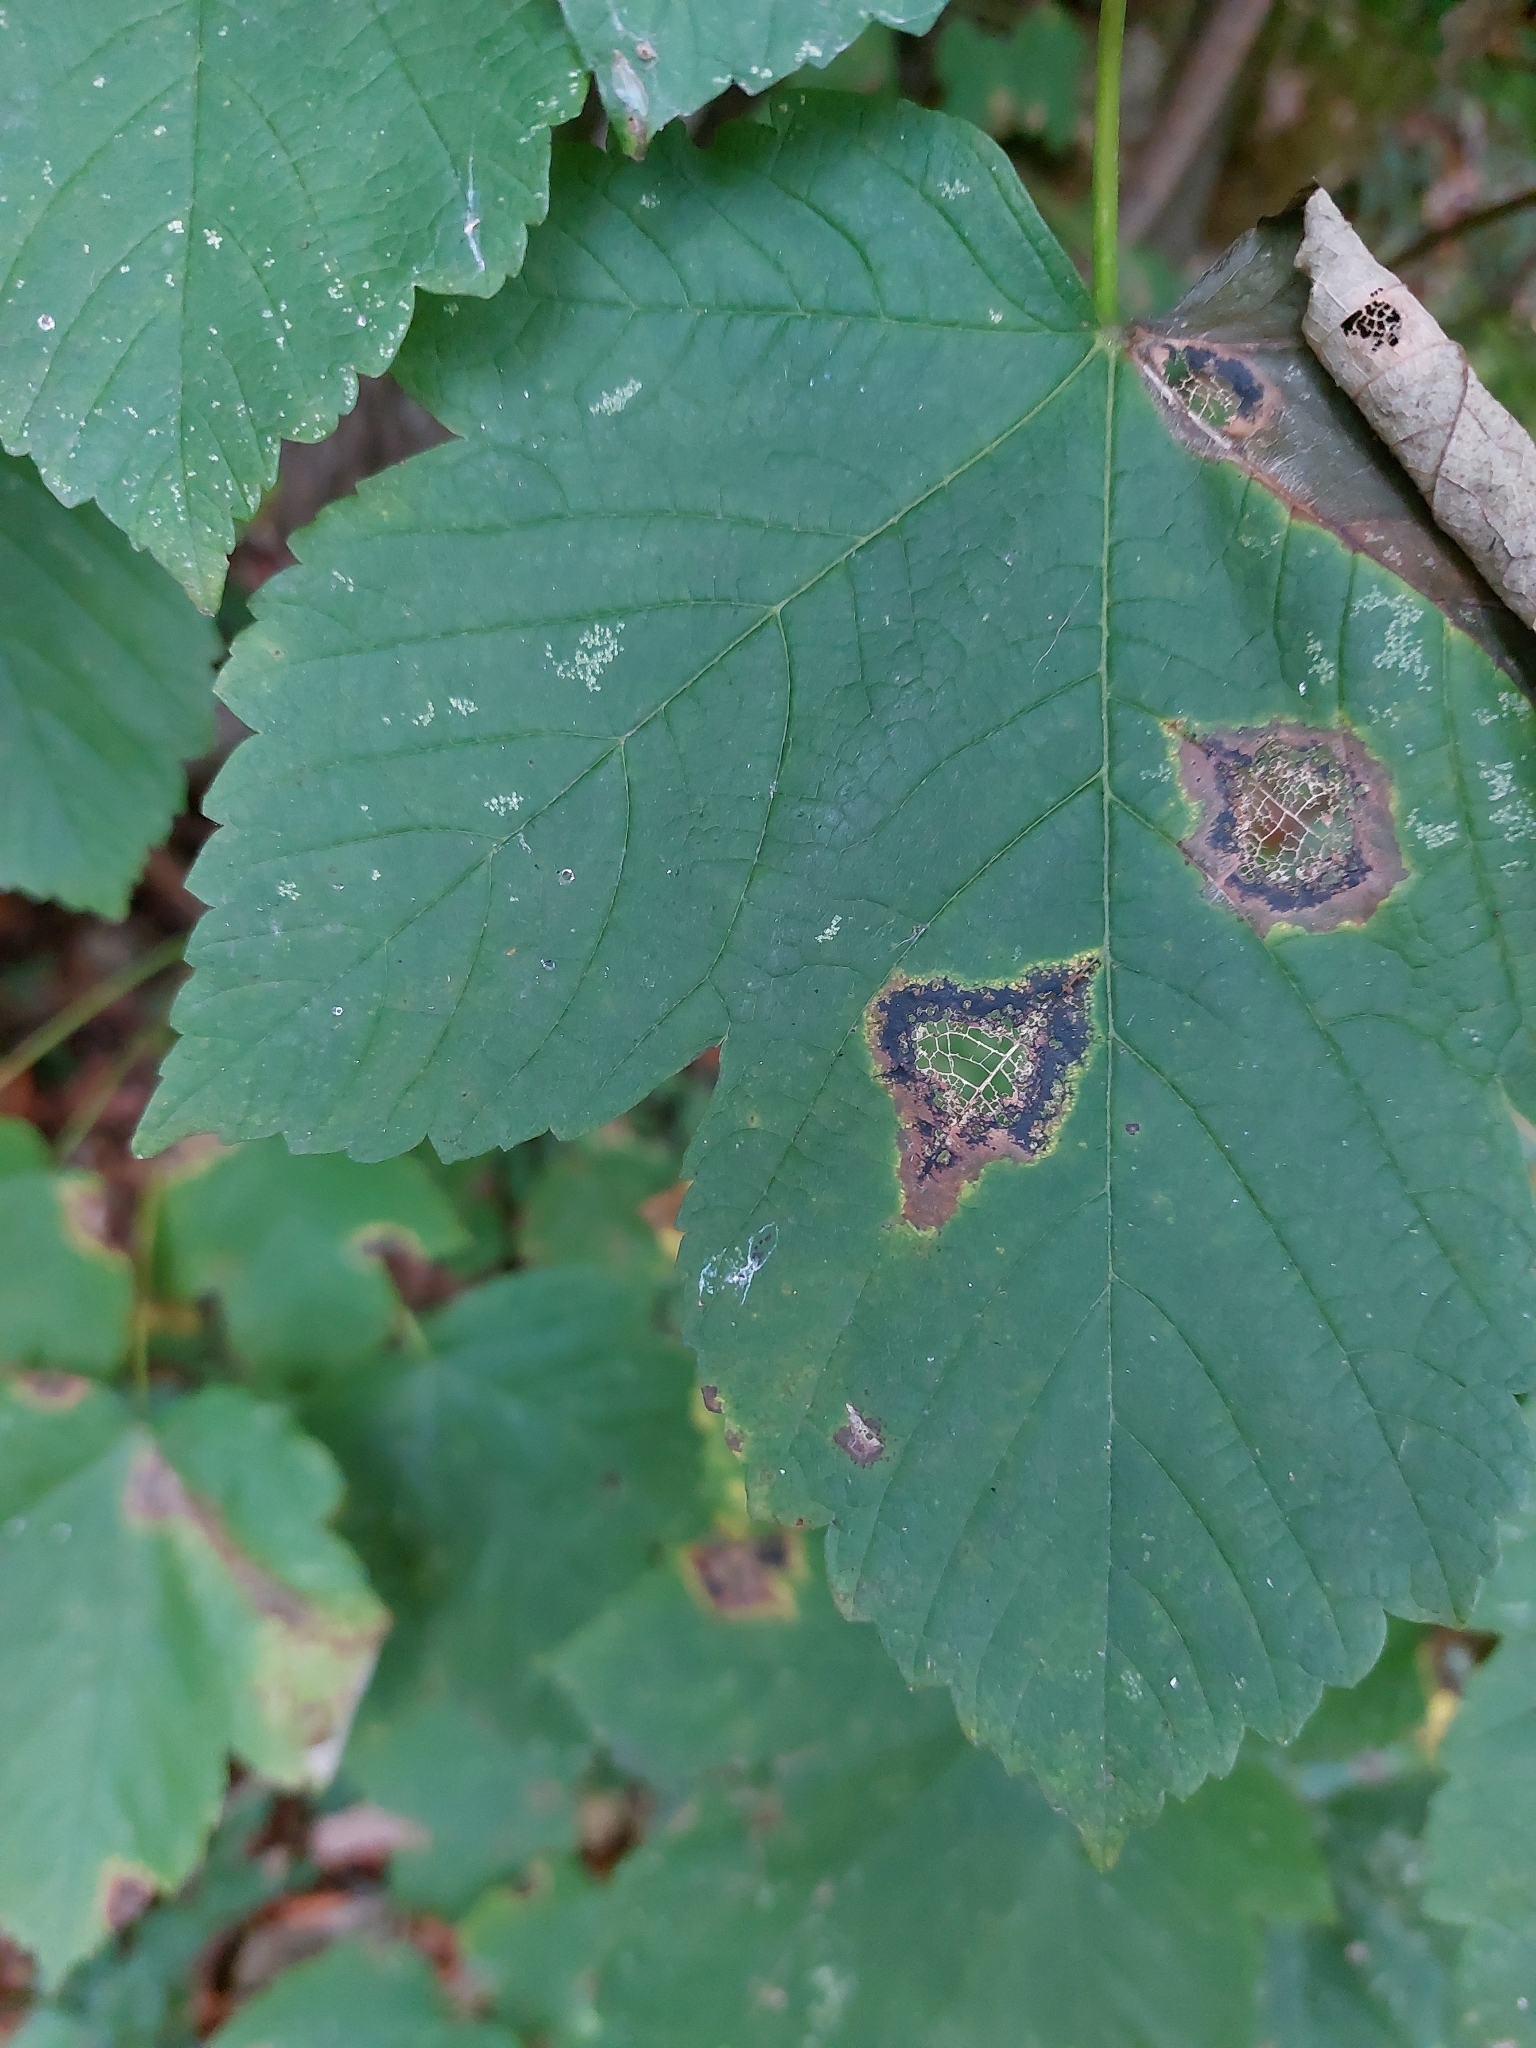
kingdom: Fungi
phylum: Ascomycota
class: Leotiomycetes
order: Rhytismatales
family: Rhytismataceae
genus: Rhytisma
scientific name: Rhytisma acerinum
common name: European tar spot
